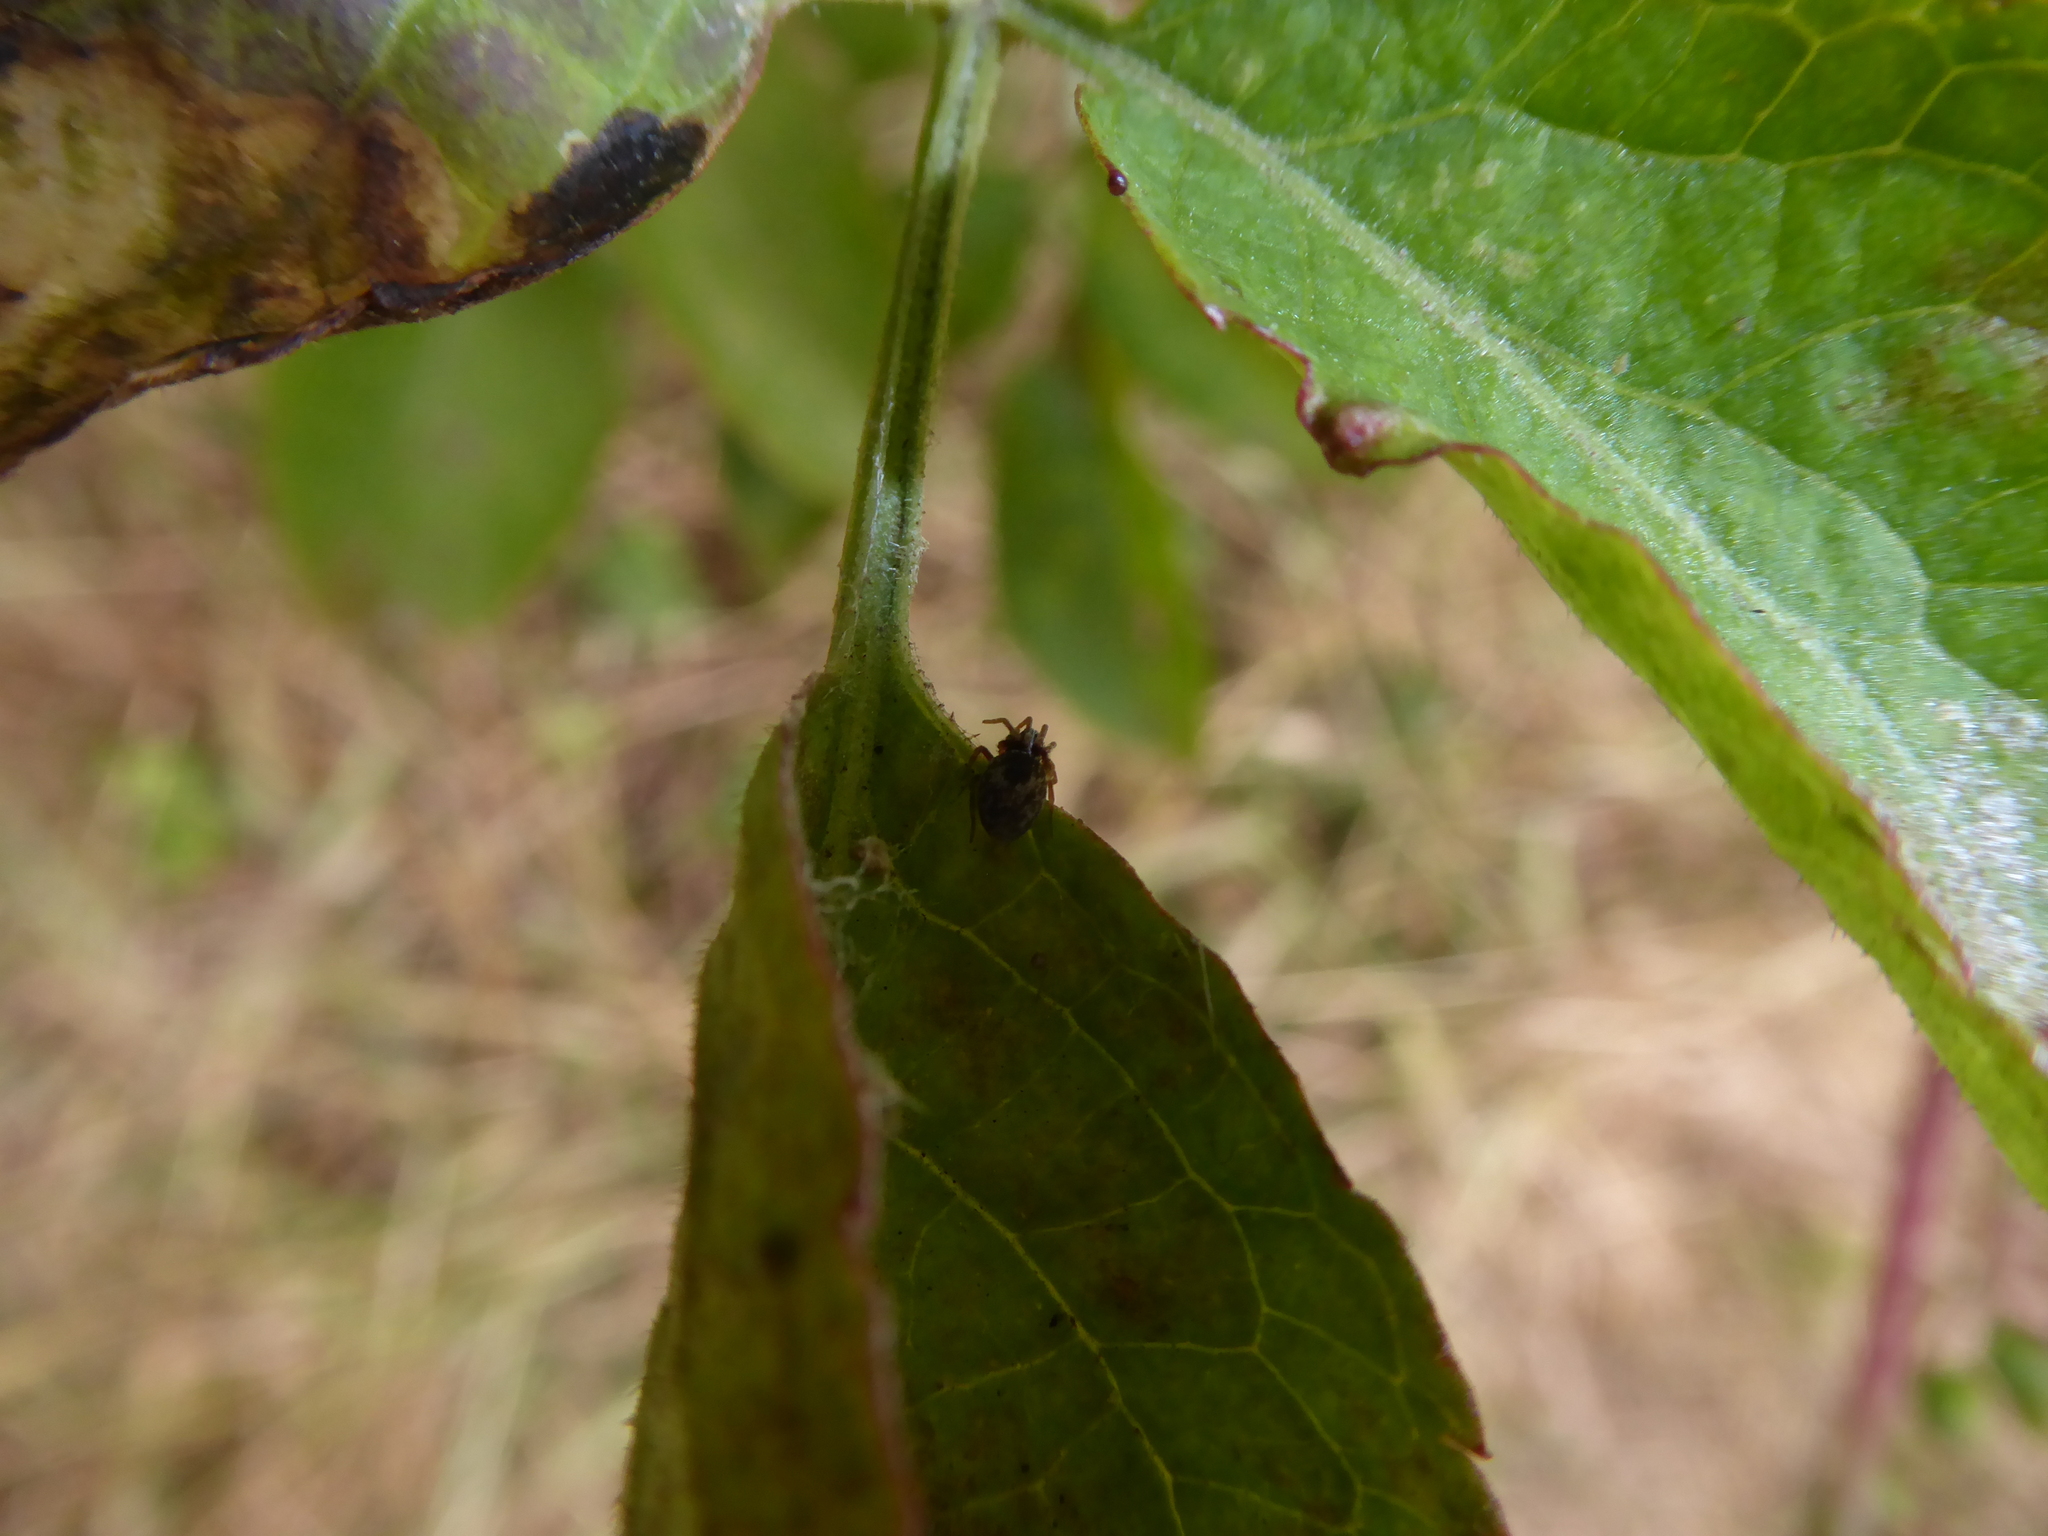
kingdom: Animalia
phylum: Arthropoda
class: Arachnida
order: Araneae
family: Dictynidae
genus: Dictyna
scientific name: Dictyna
